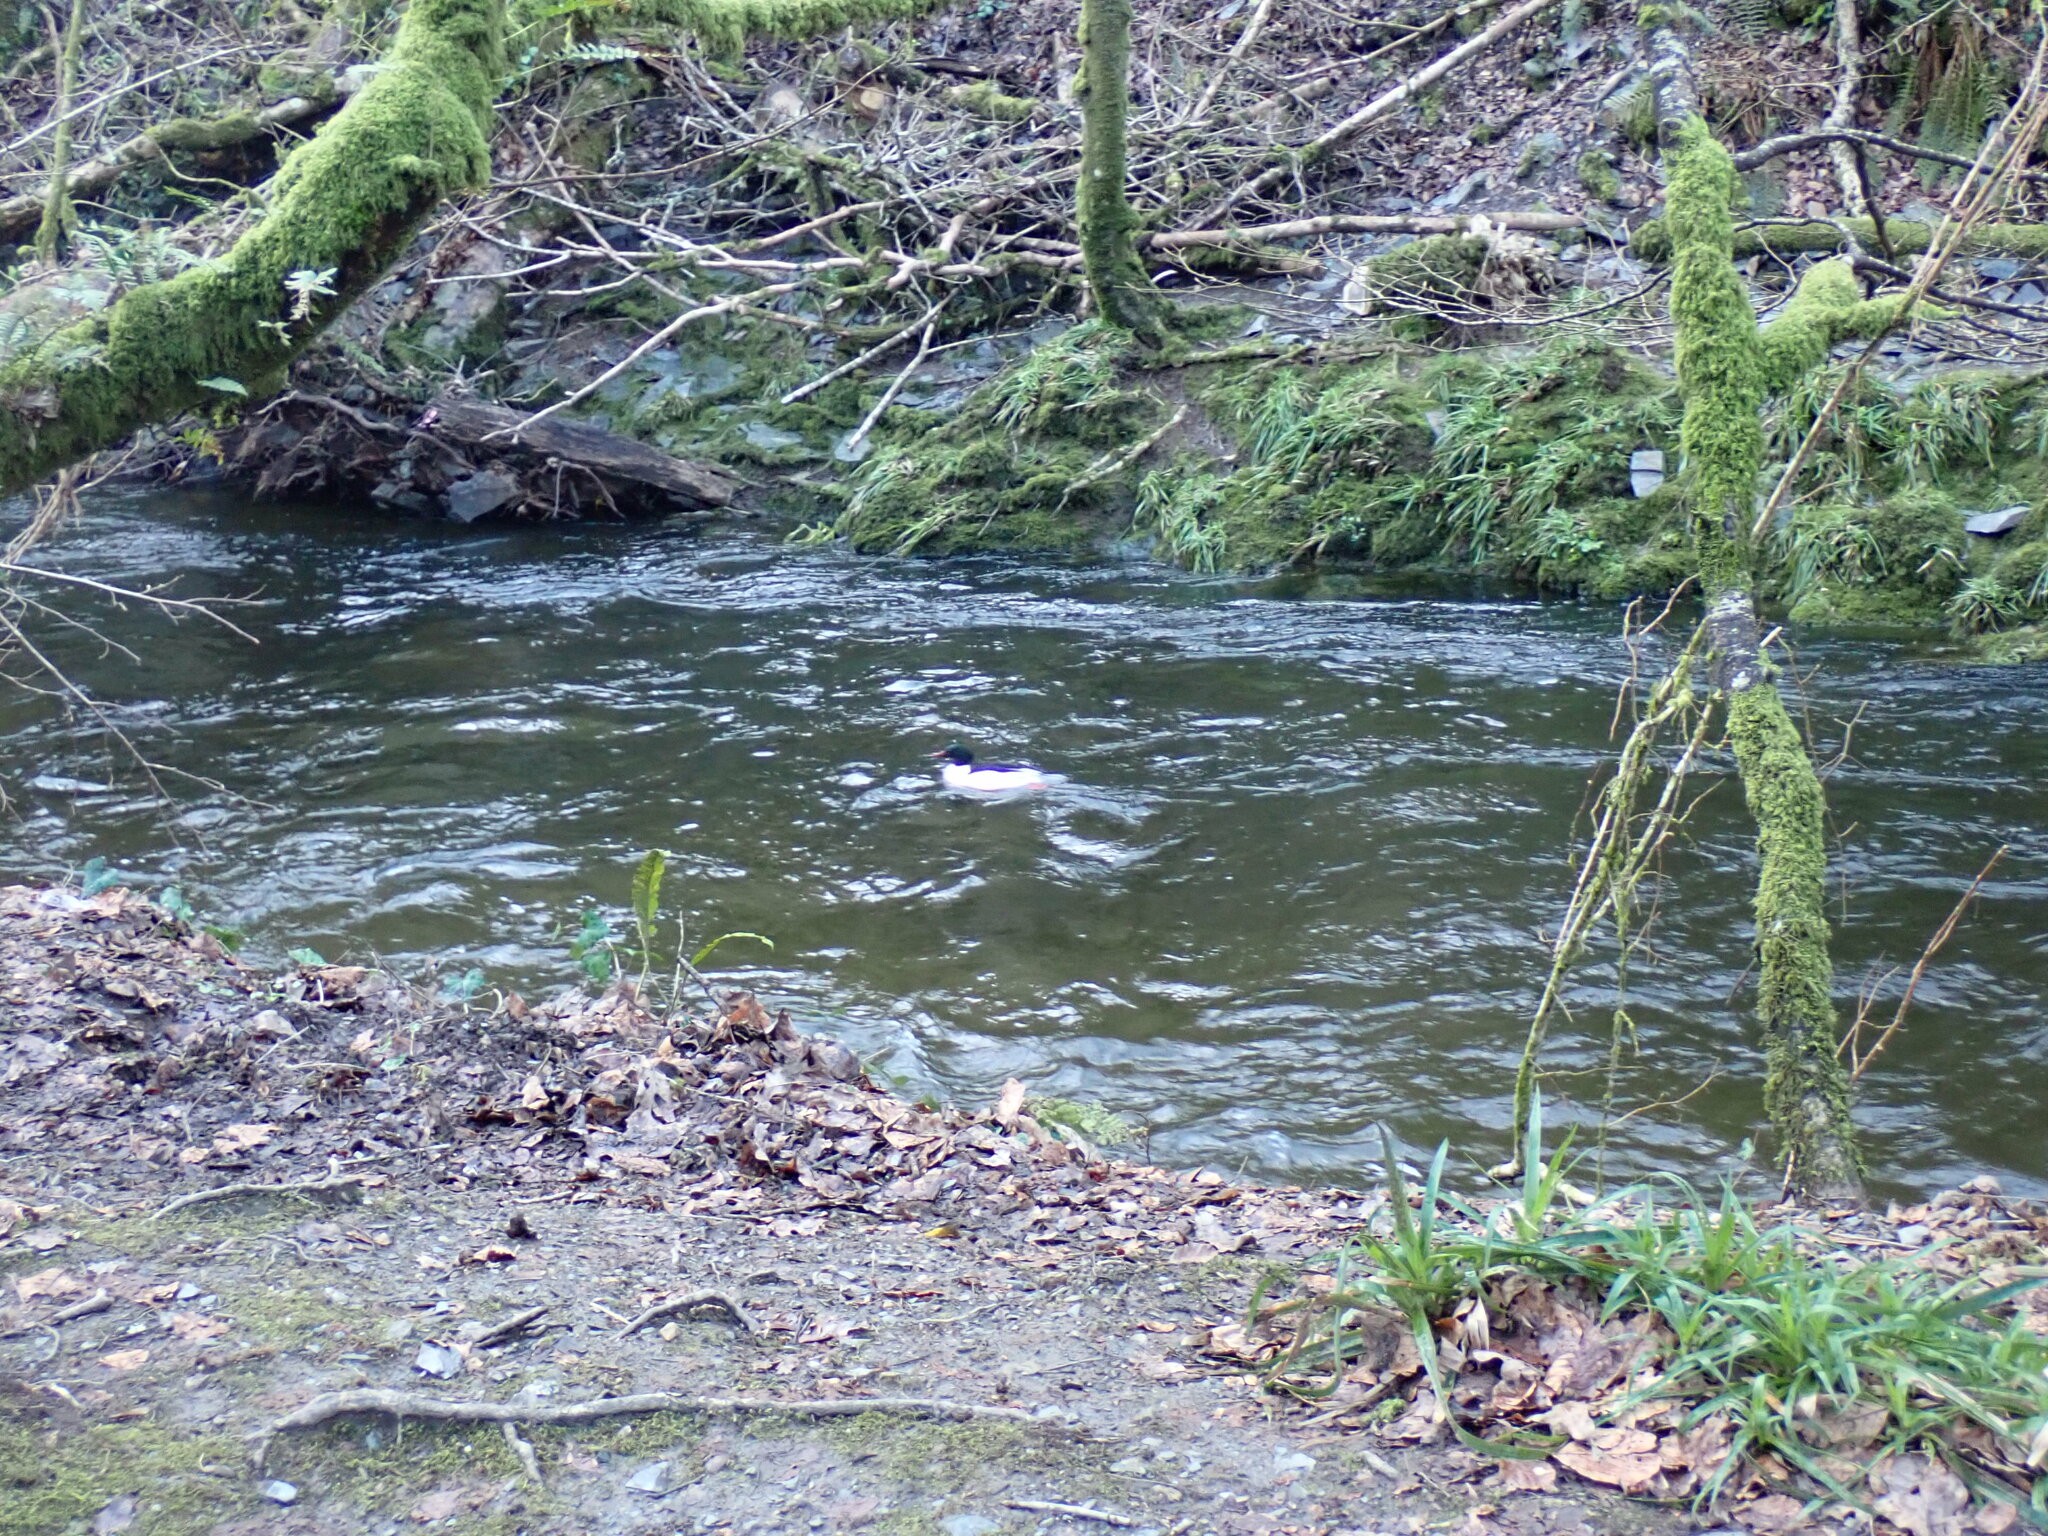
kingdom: Animalia
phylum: Chordata
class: Aves
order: Anseriformes
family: Anatidae
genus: Mergus
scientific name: Mergus merganser
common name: Common merganser
